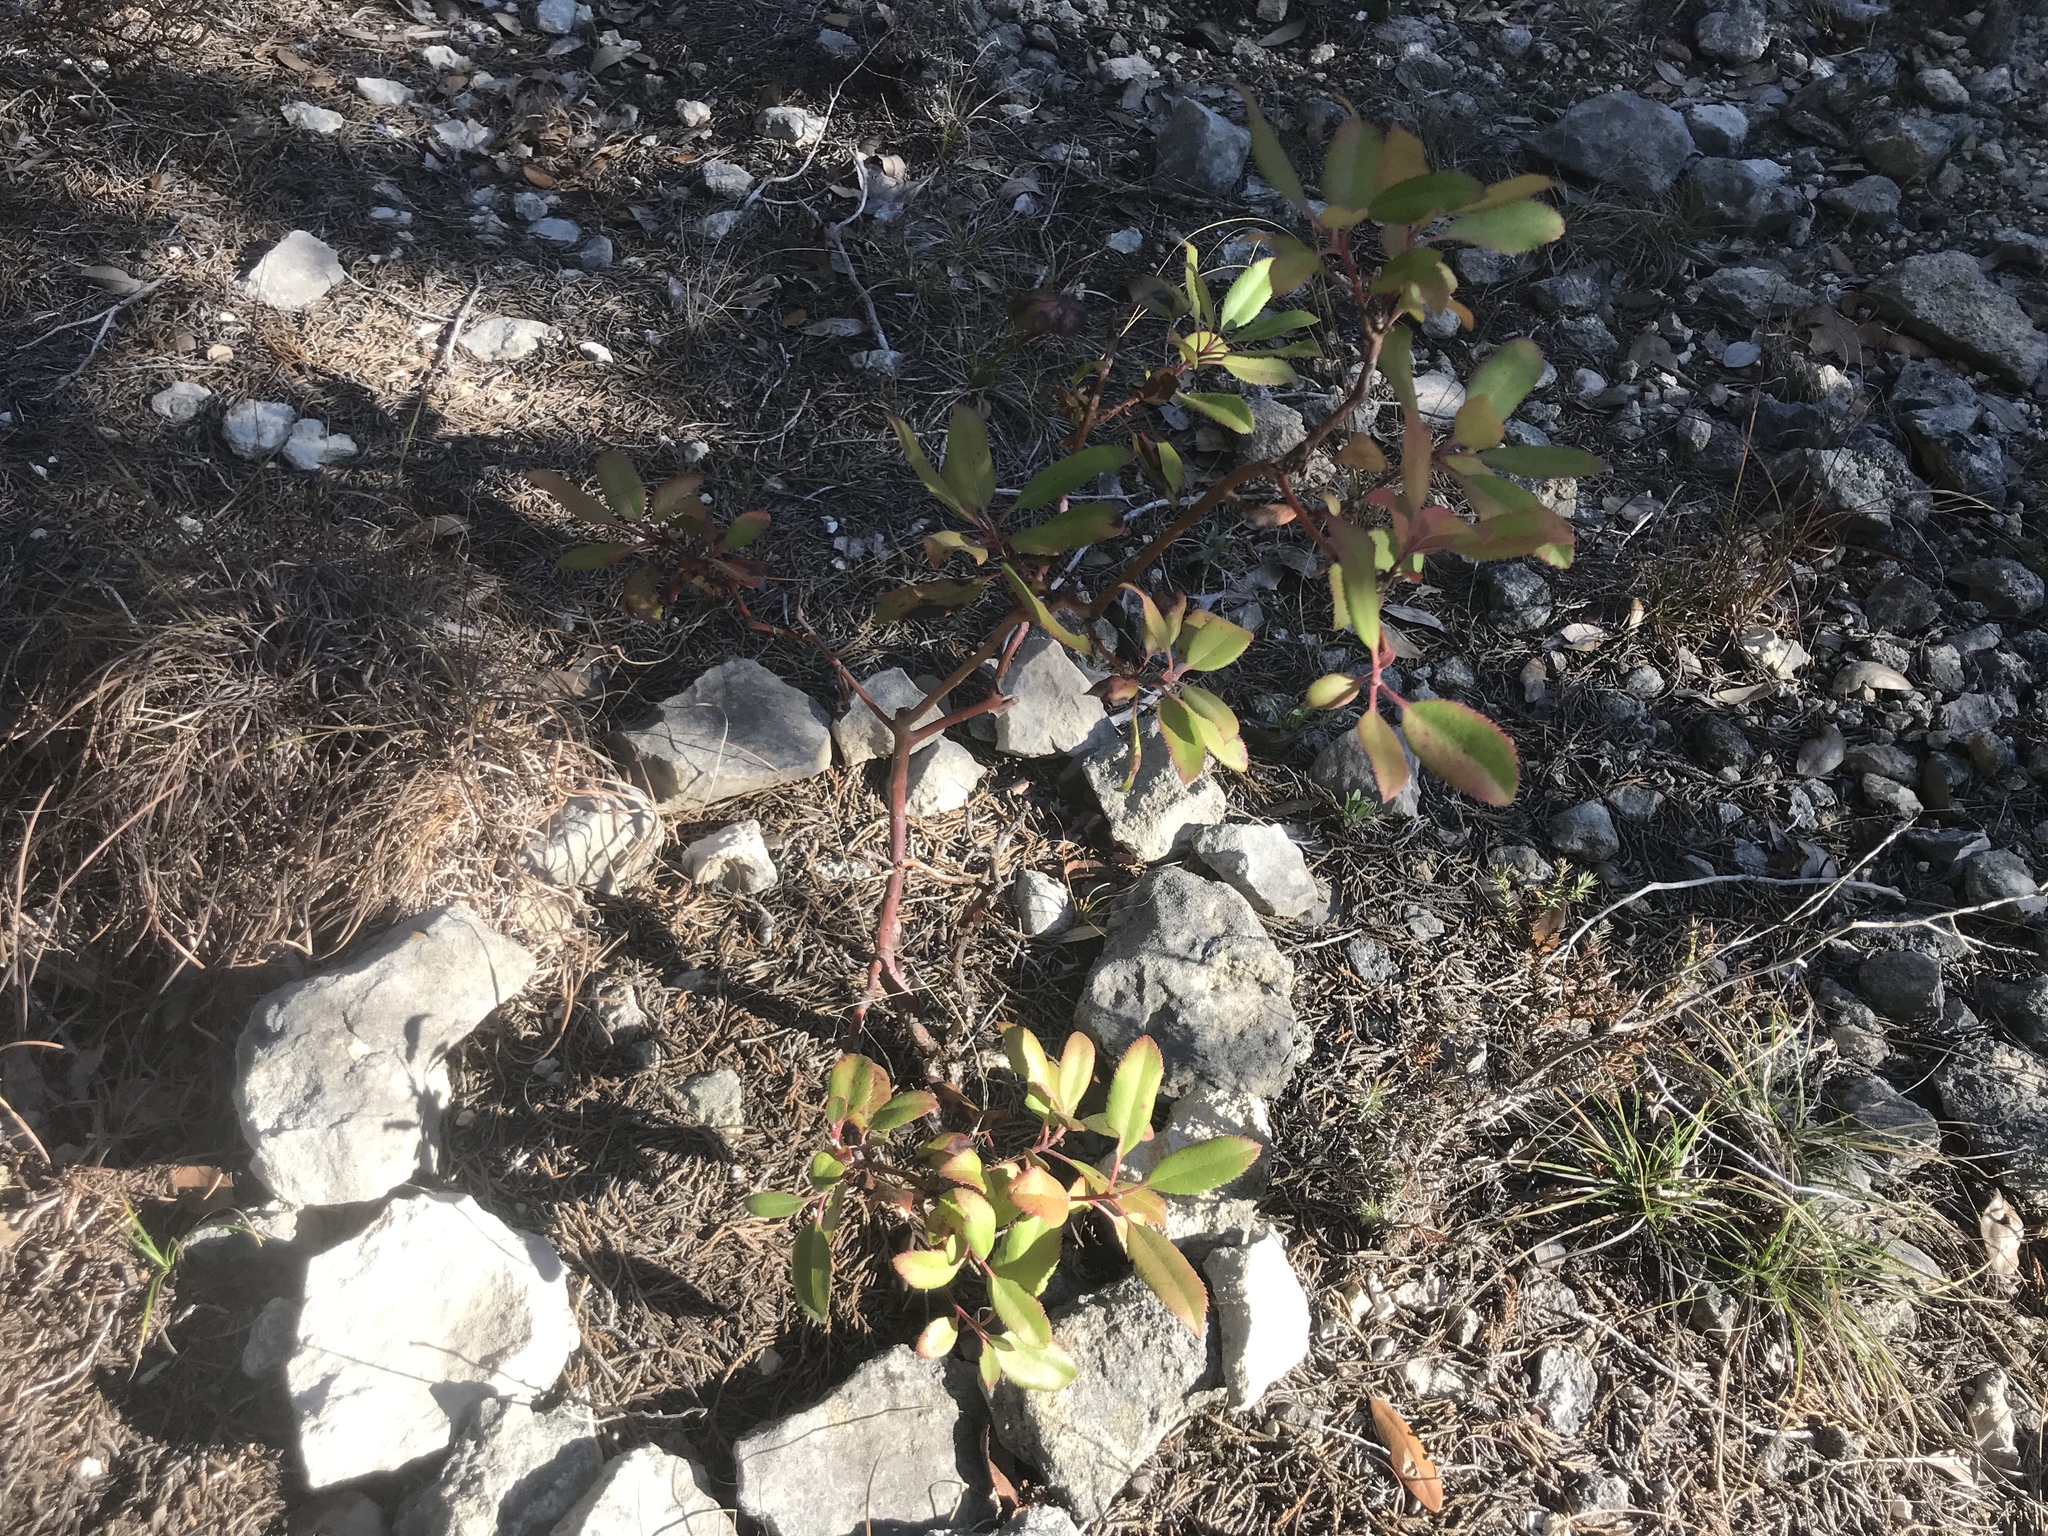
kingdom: Plantae
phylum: Tracheophyta
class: Magnoliopsida
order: Ericales
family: Ericaceae
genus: Arbutus
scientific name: Arbutus xalapensis
